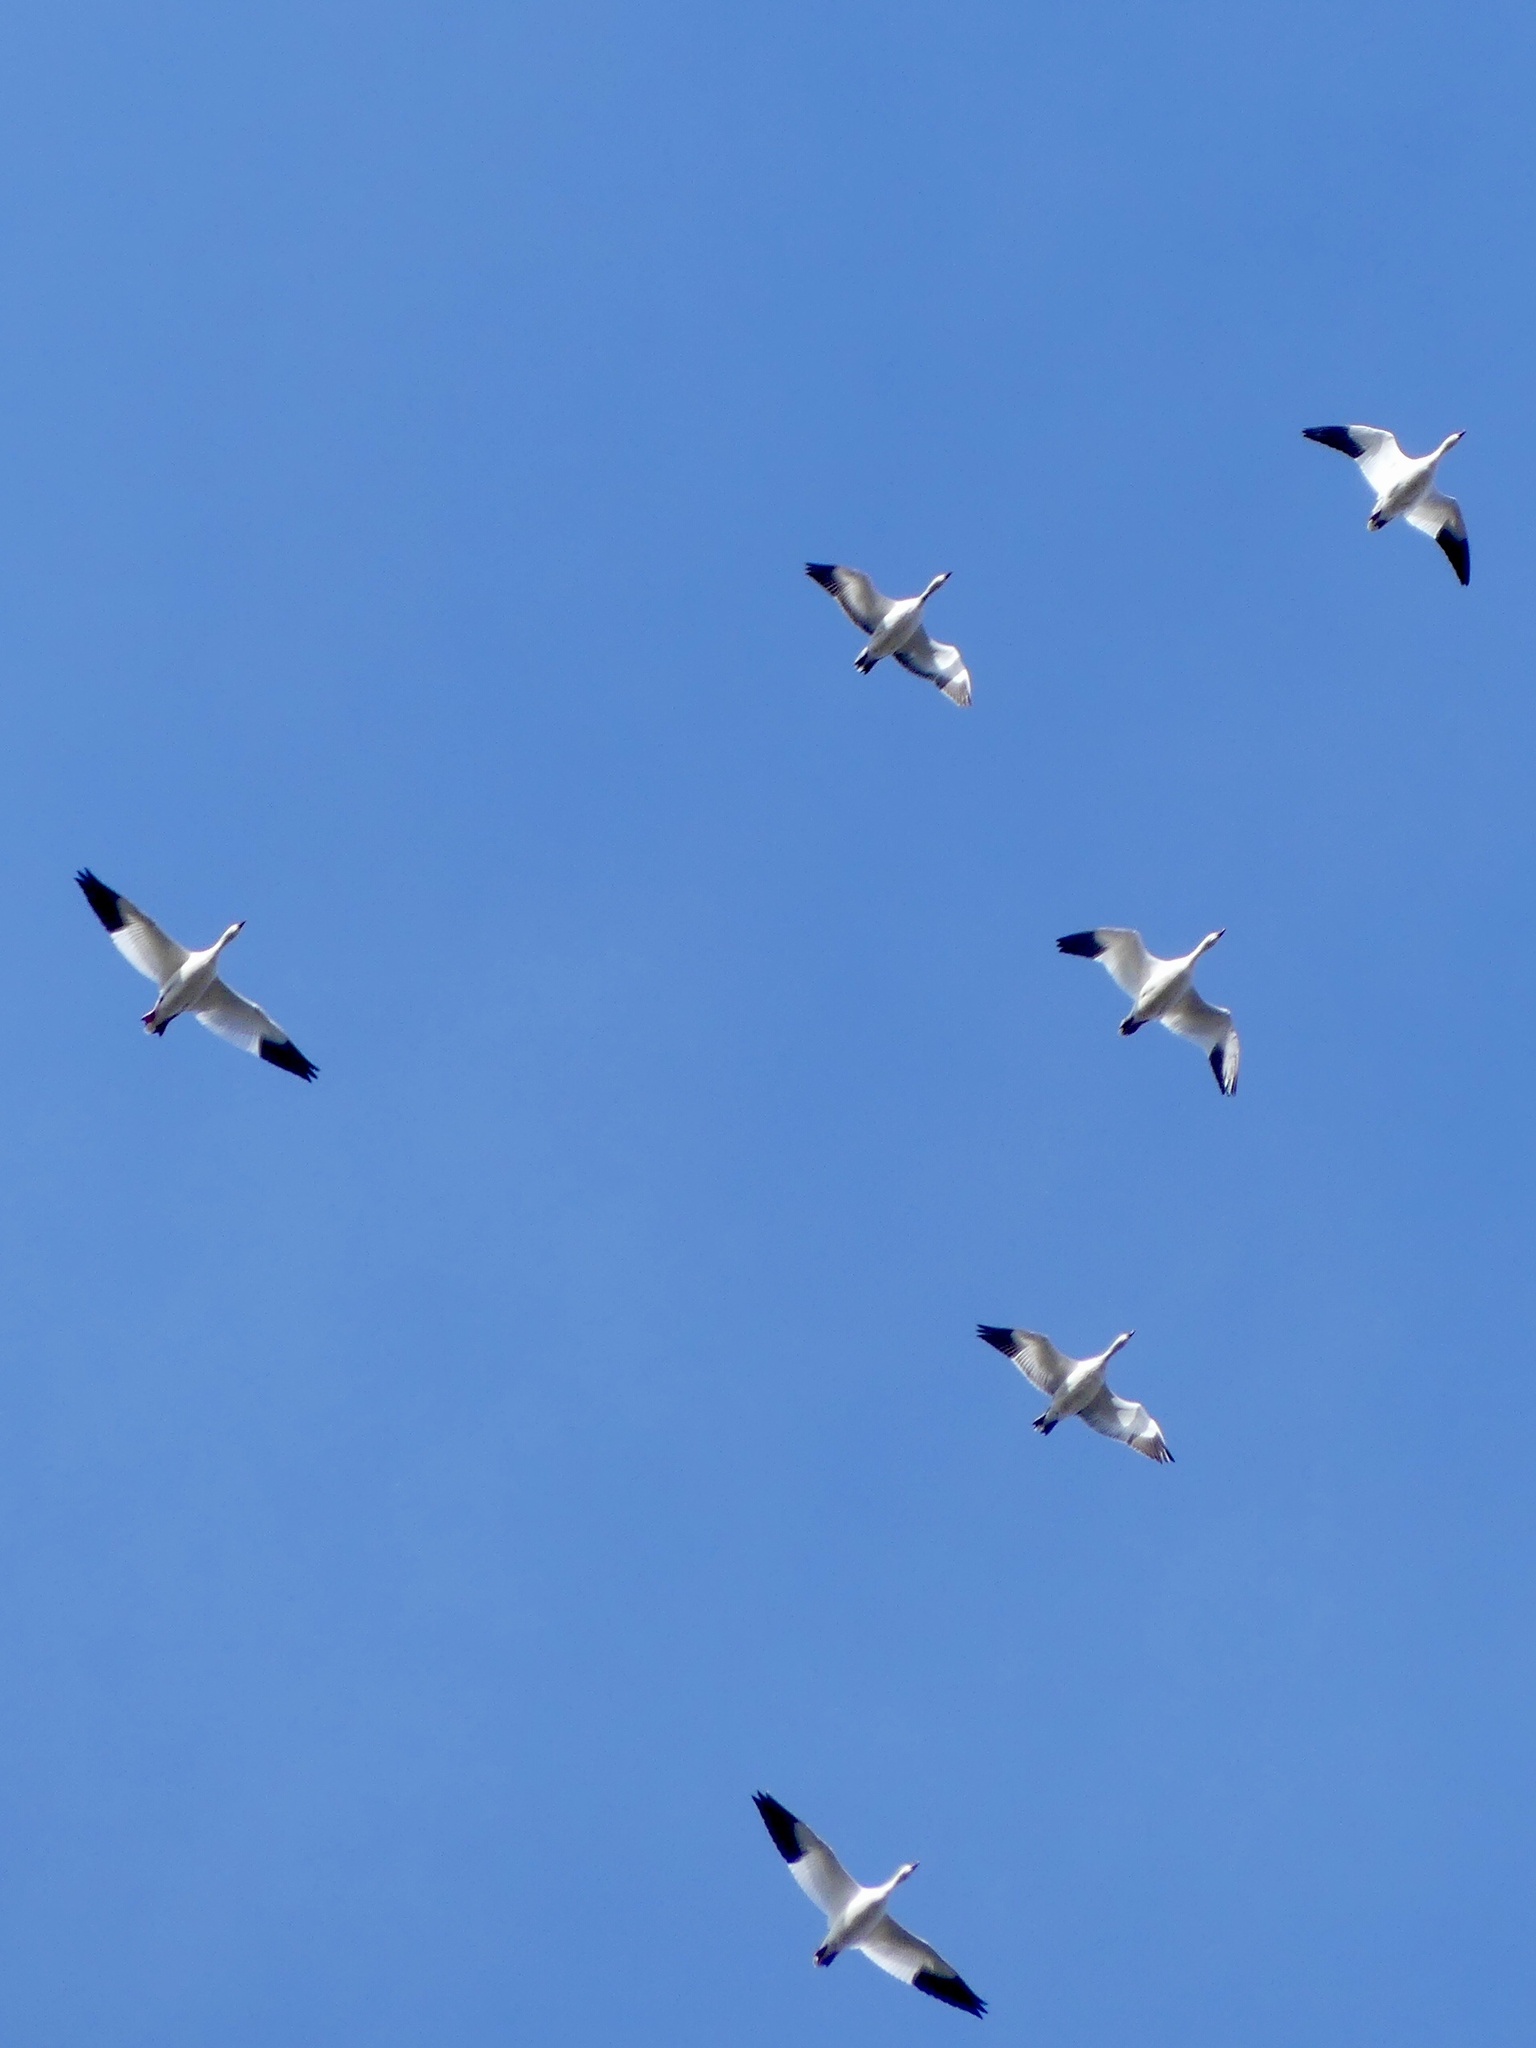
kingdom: Animalia
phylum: Chordata
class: Aves
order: Anseriformes
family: Anatidae
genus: Anser
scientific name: Anser caerulescens
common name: Snow goose
